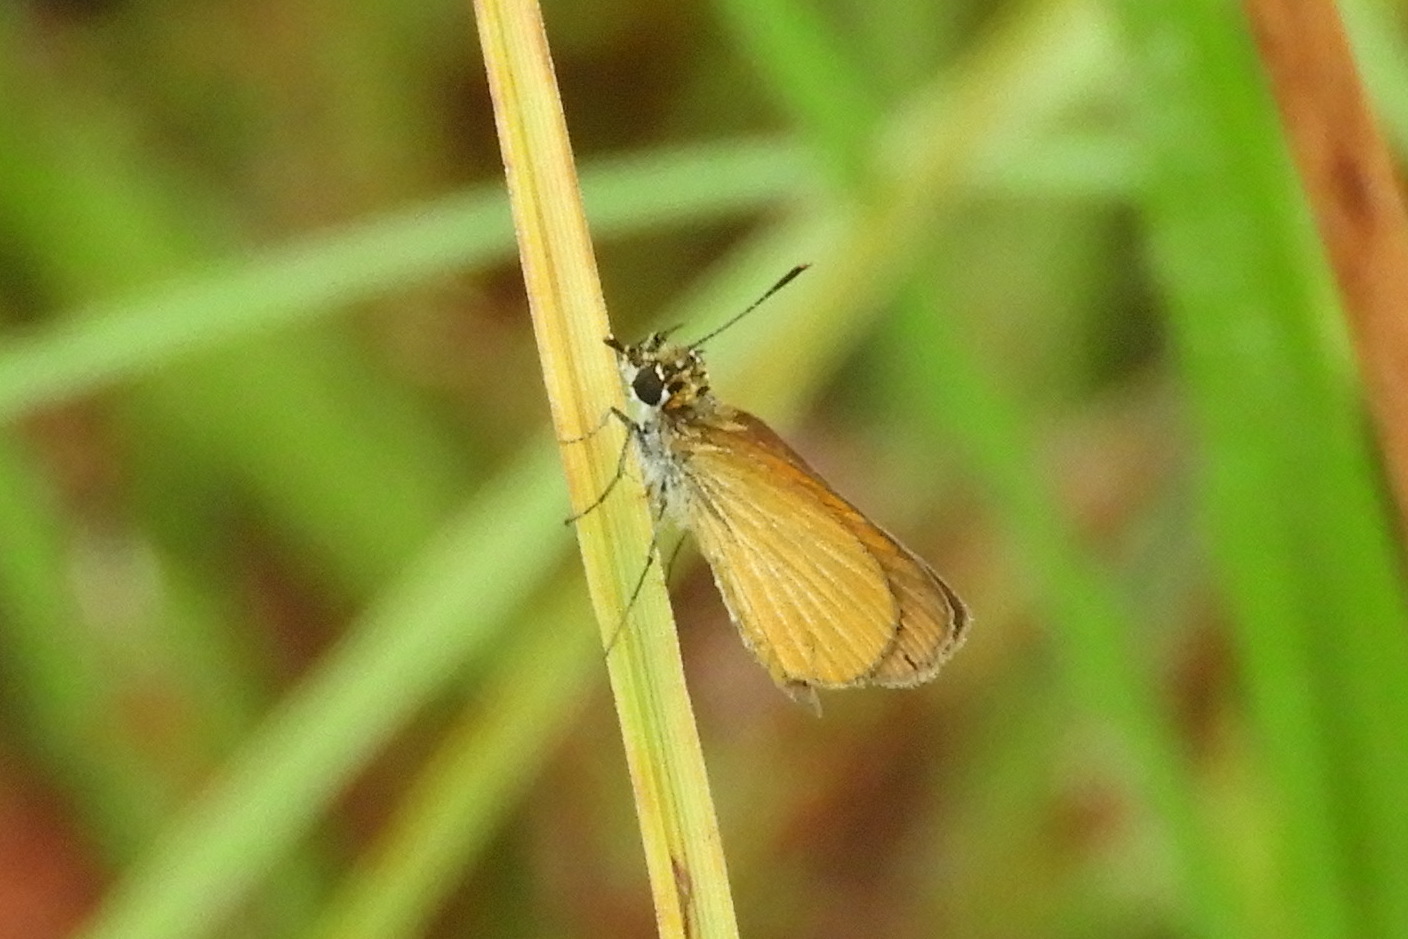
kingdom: Animalia
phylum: Arthropoda
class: Insecta
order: Lepidoptera
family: Hesperiidae
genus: Ancyloxypha
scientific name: Ancyloxypha numitor
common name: Least skipper
